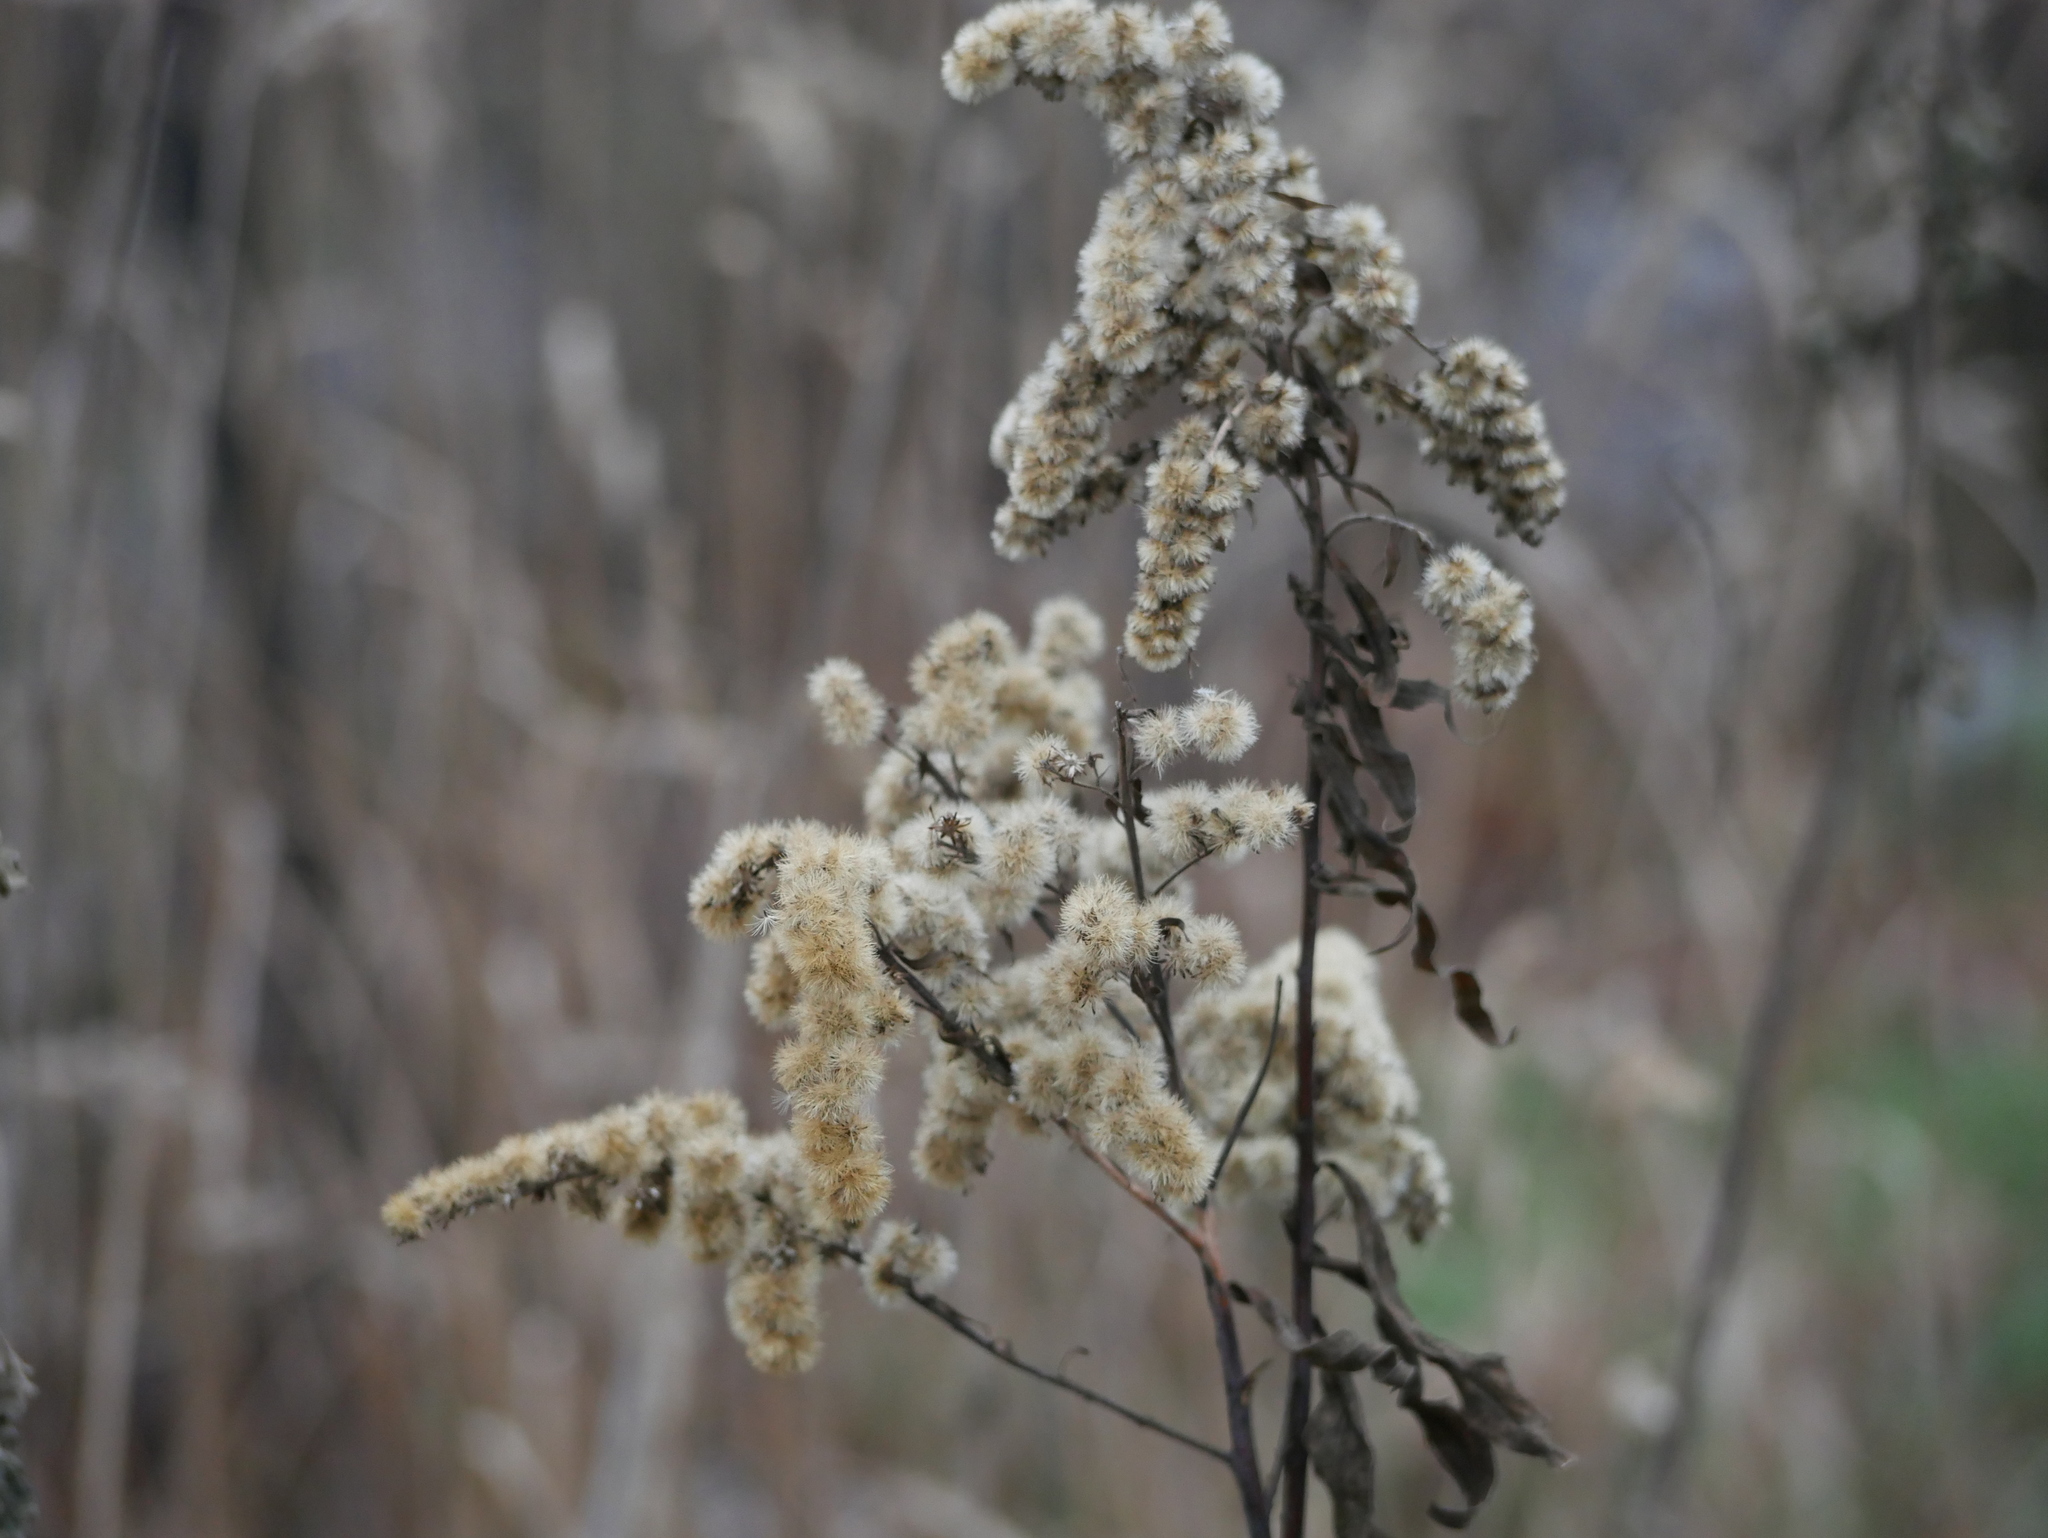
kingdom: Plantae
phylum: Tracheophyta
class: Magnoliopsida
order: Asterales
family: Asteraceae
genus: Solidago
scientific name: Solidago canadensis
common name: Canada goldenrod
